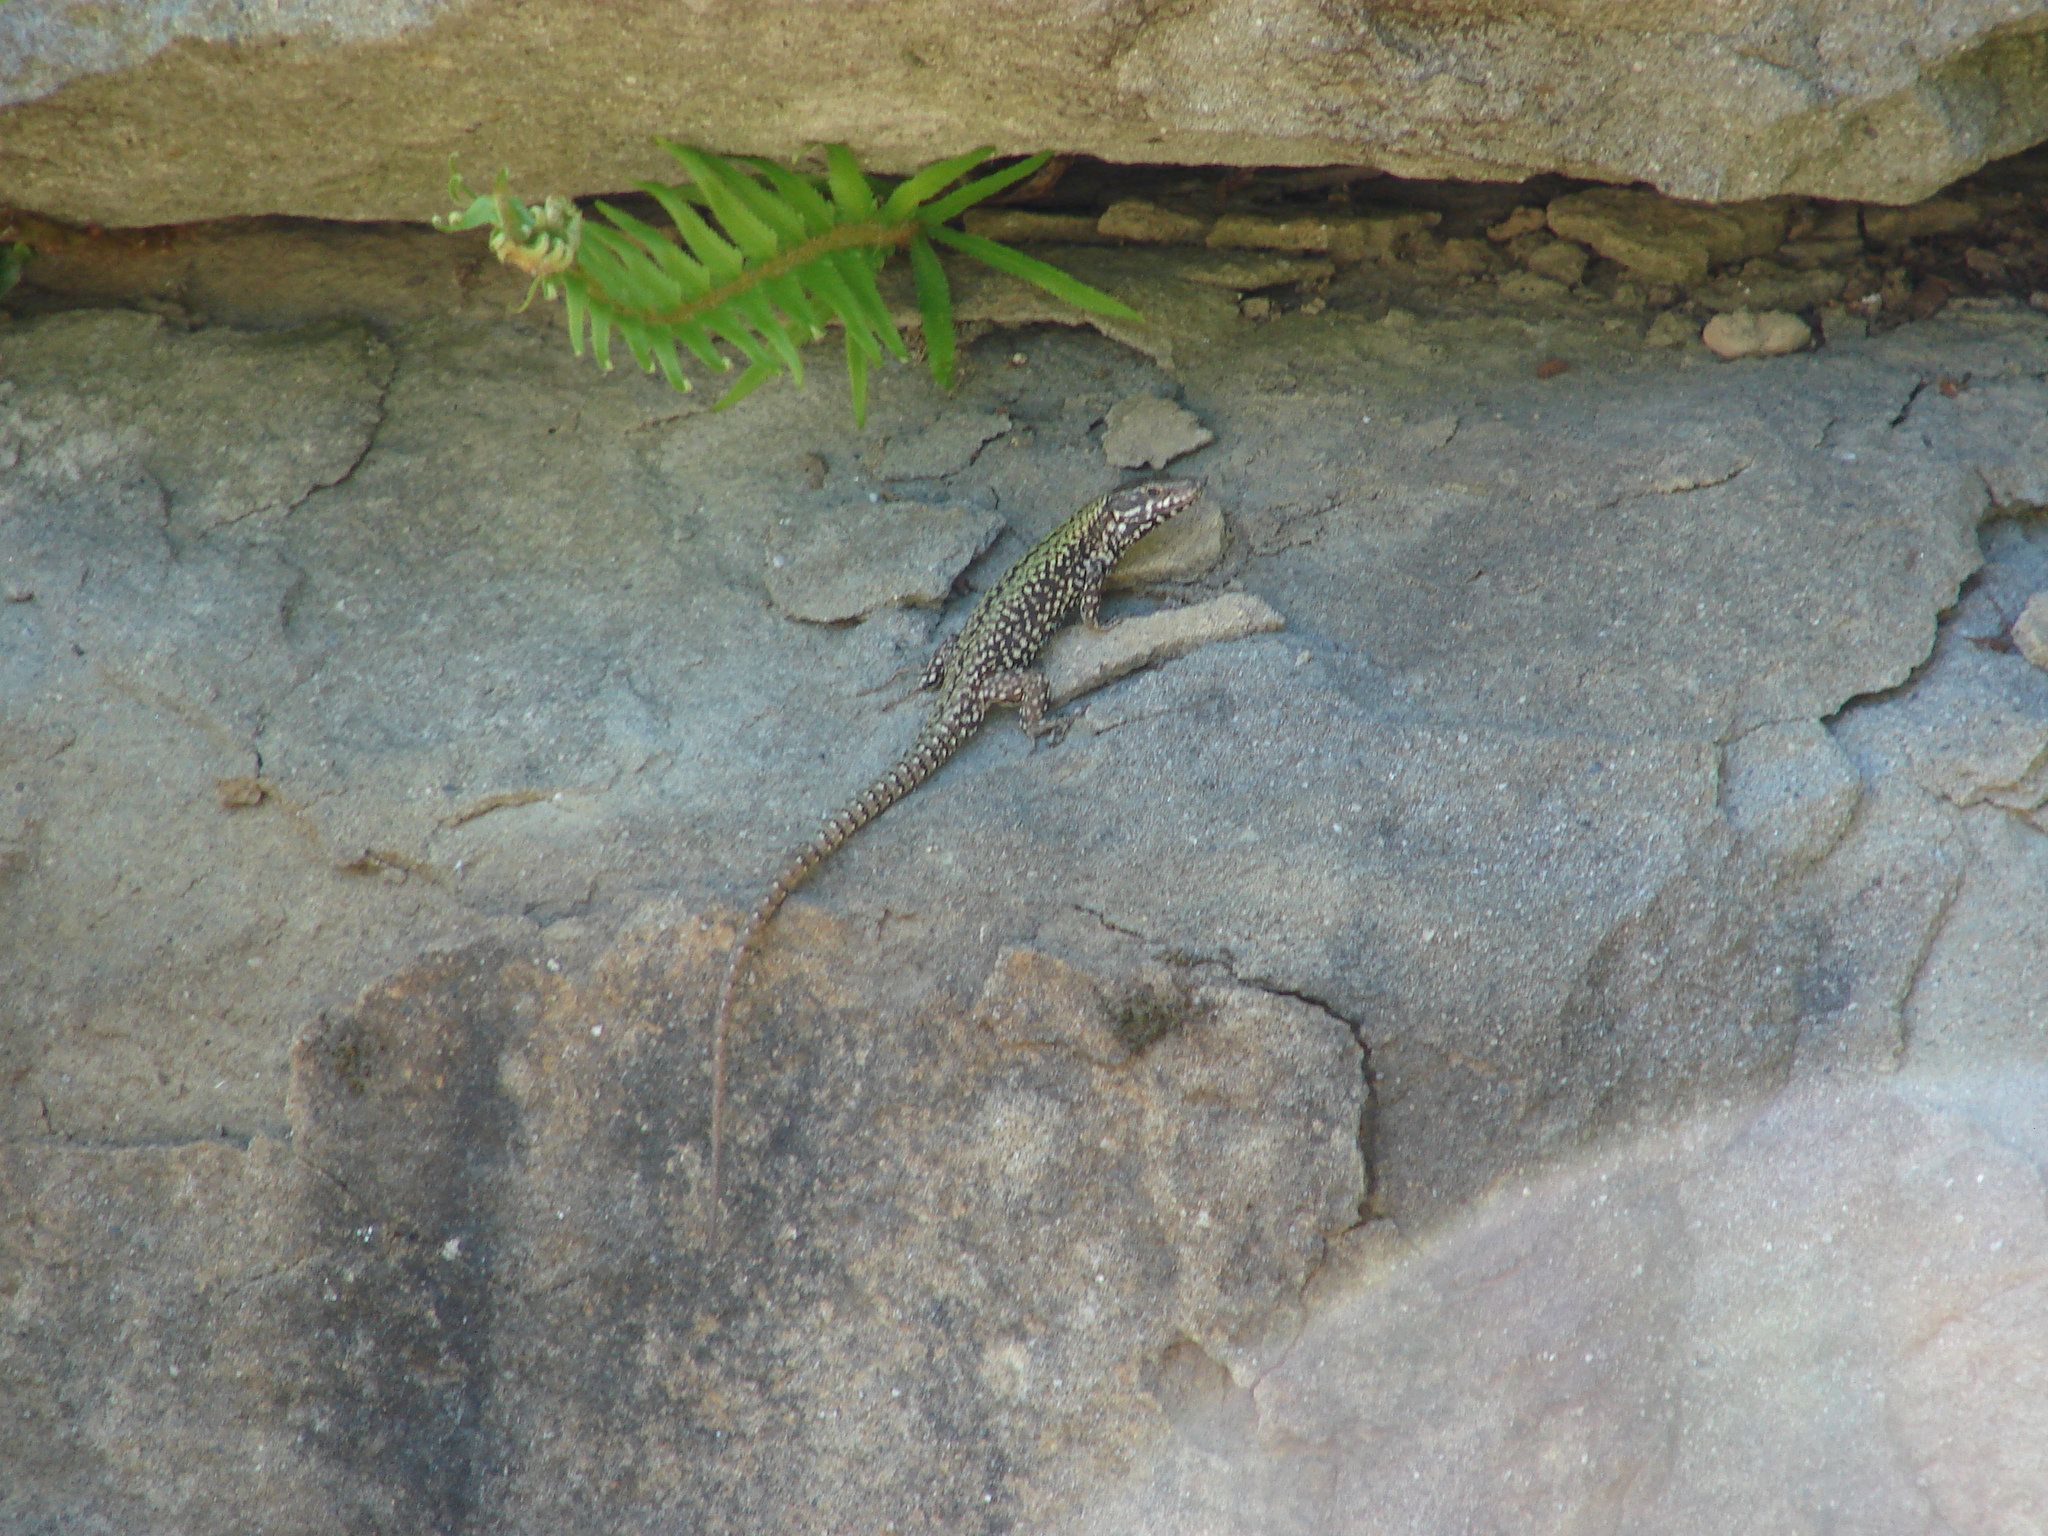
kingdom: Animalia
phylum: Chordata
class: Squamata
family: Lacertidae
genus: Podarcis
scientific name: Podarcis muralis
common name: Common wall lizard
